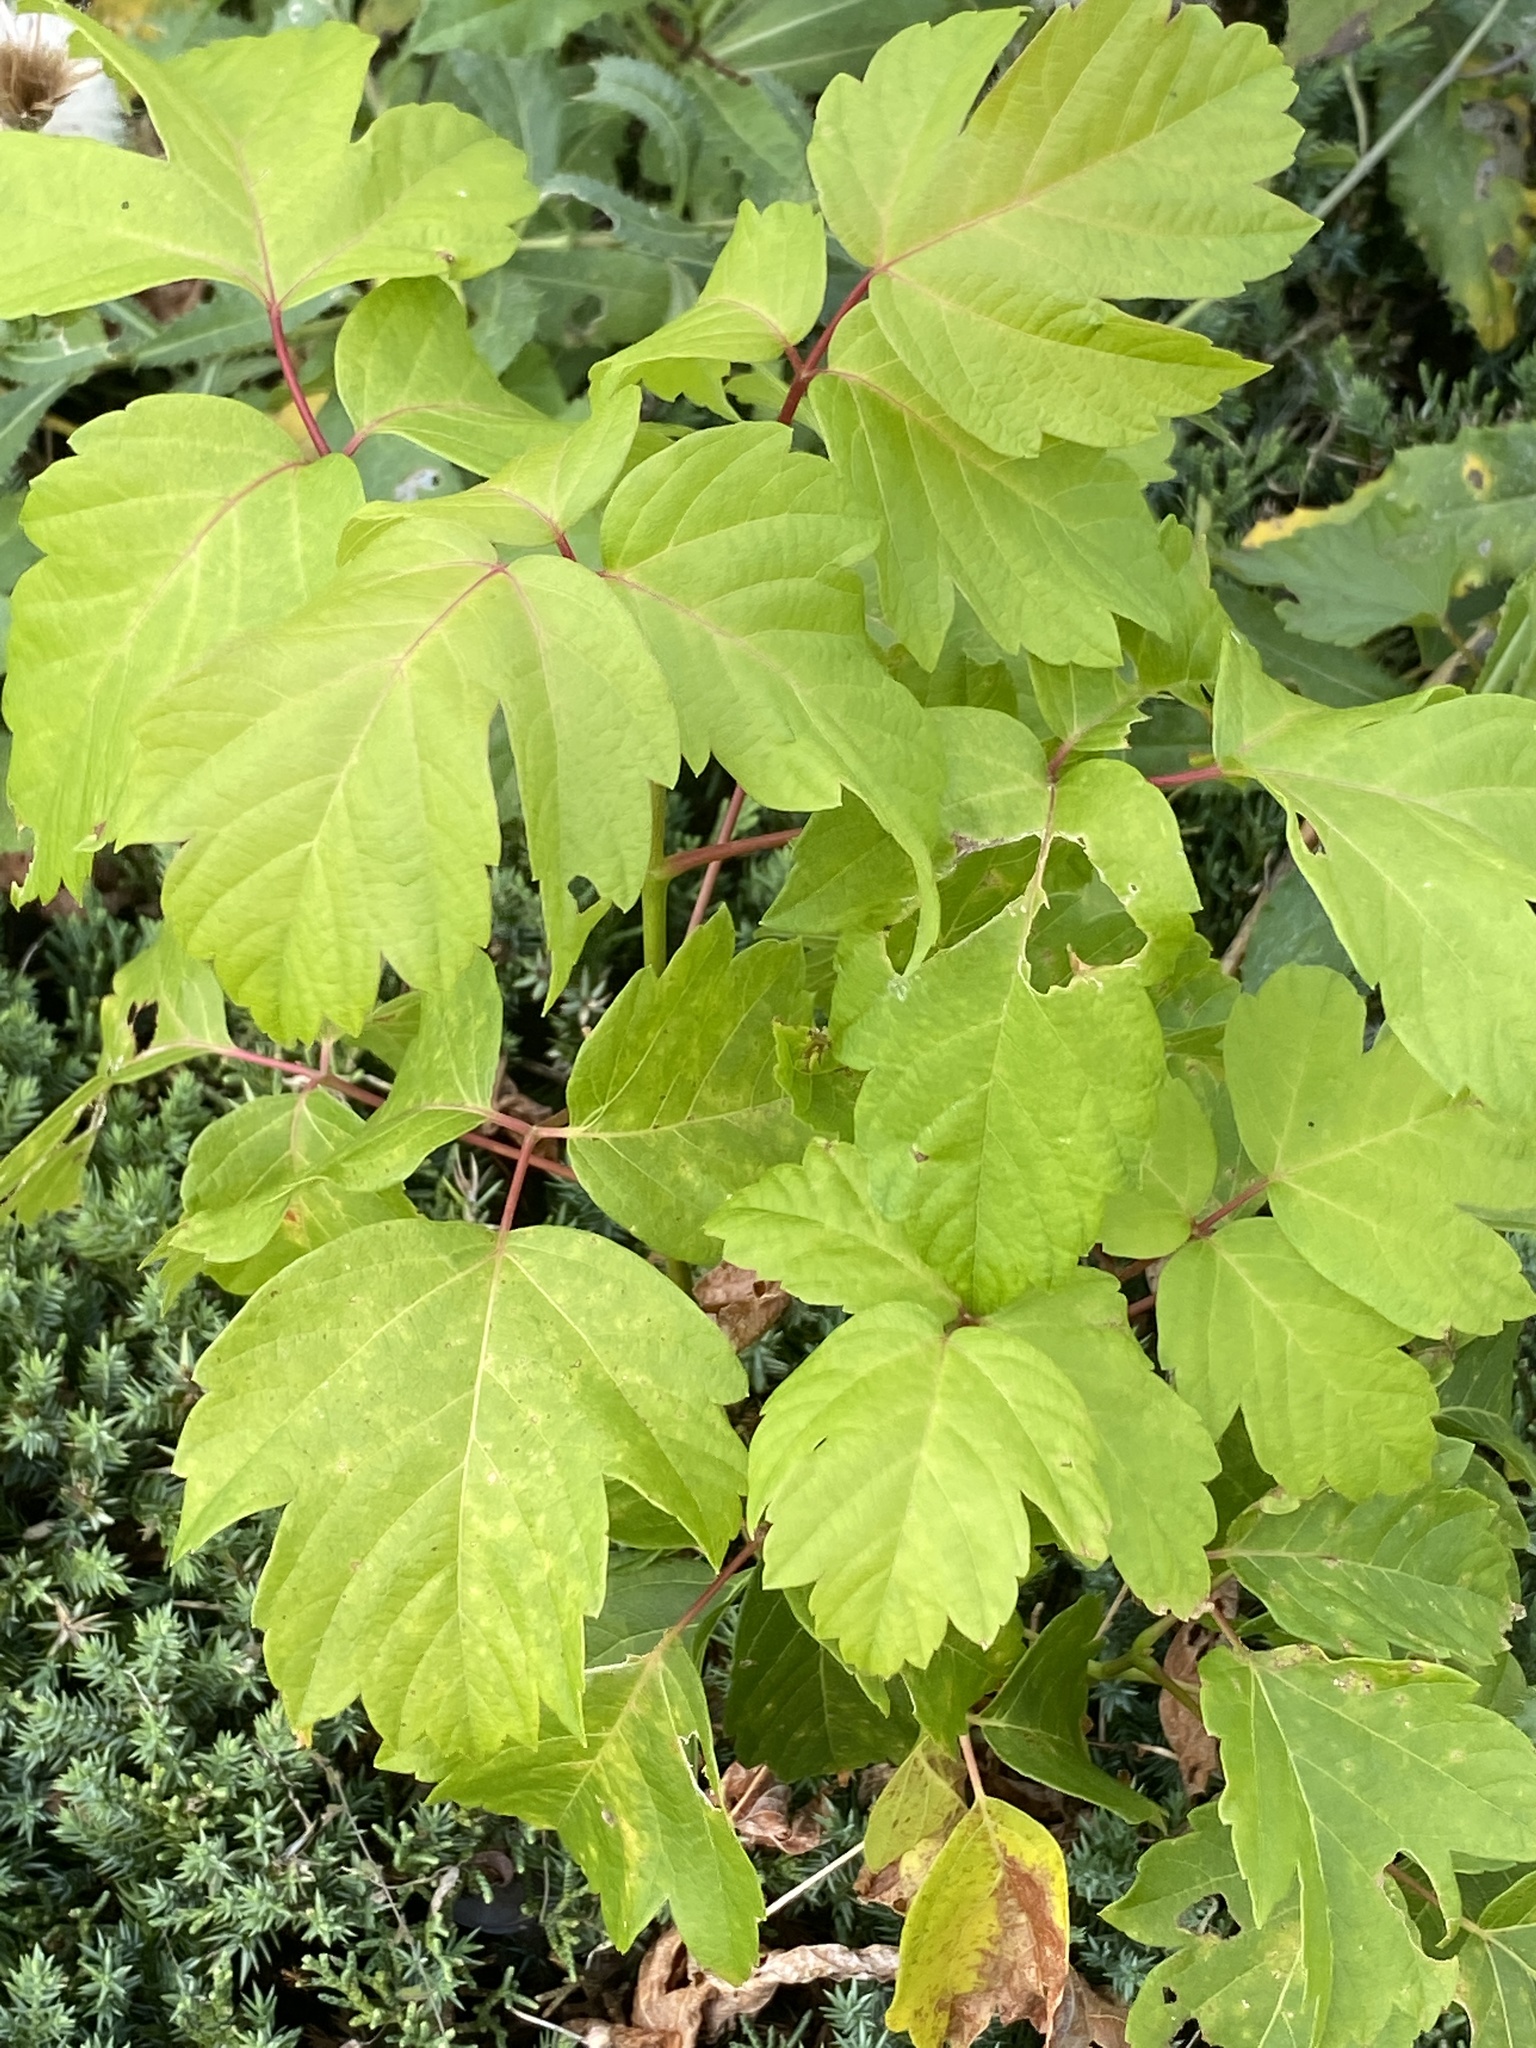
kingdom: Plantae
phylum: Tracheophyta
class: Magnoliopsida
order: Sapindales
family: Sapindaceae
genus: Acer
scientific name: Acer negundo
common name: Ashleaf maple
